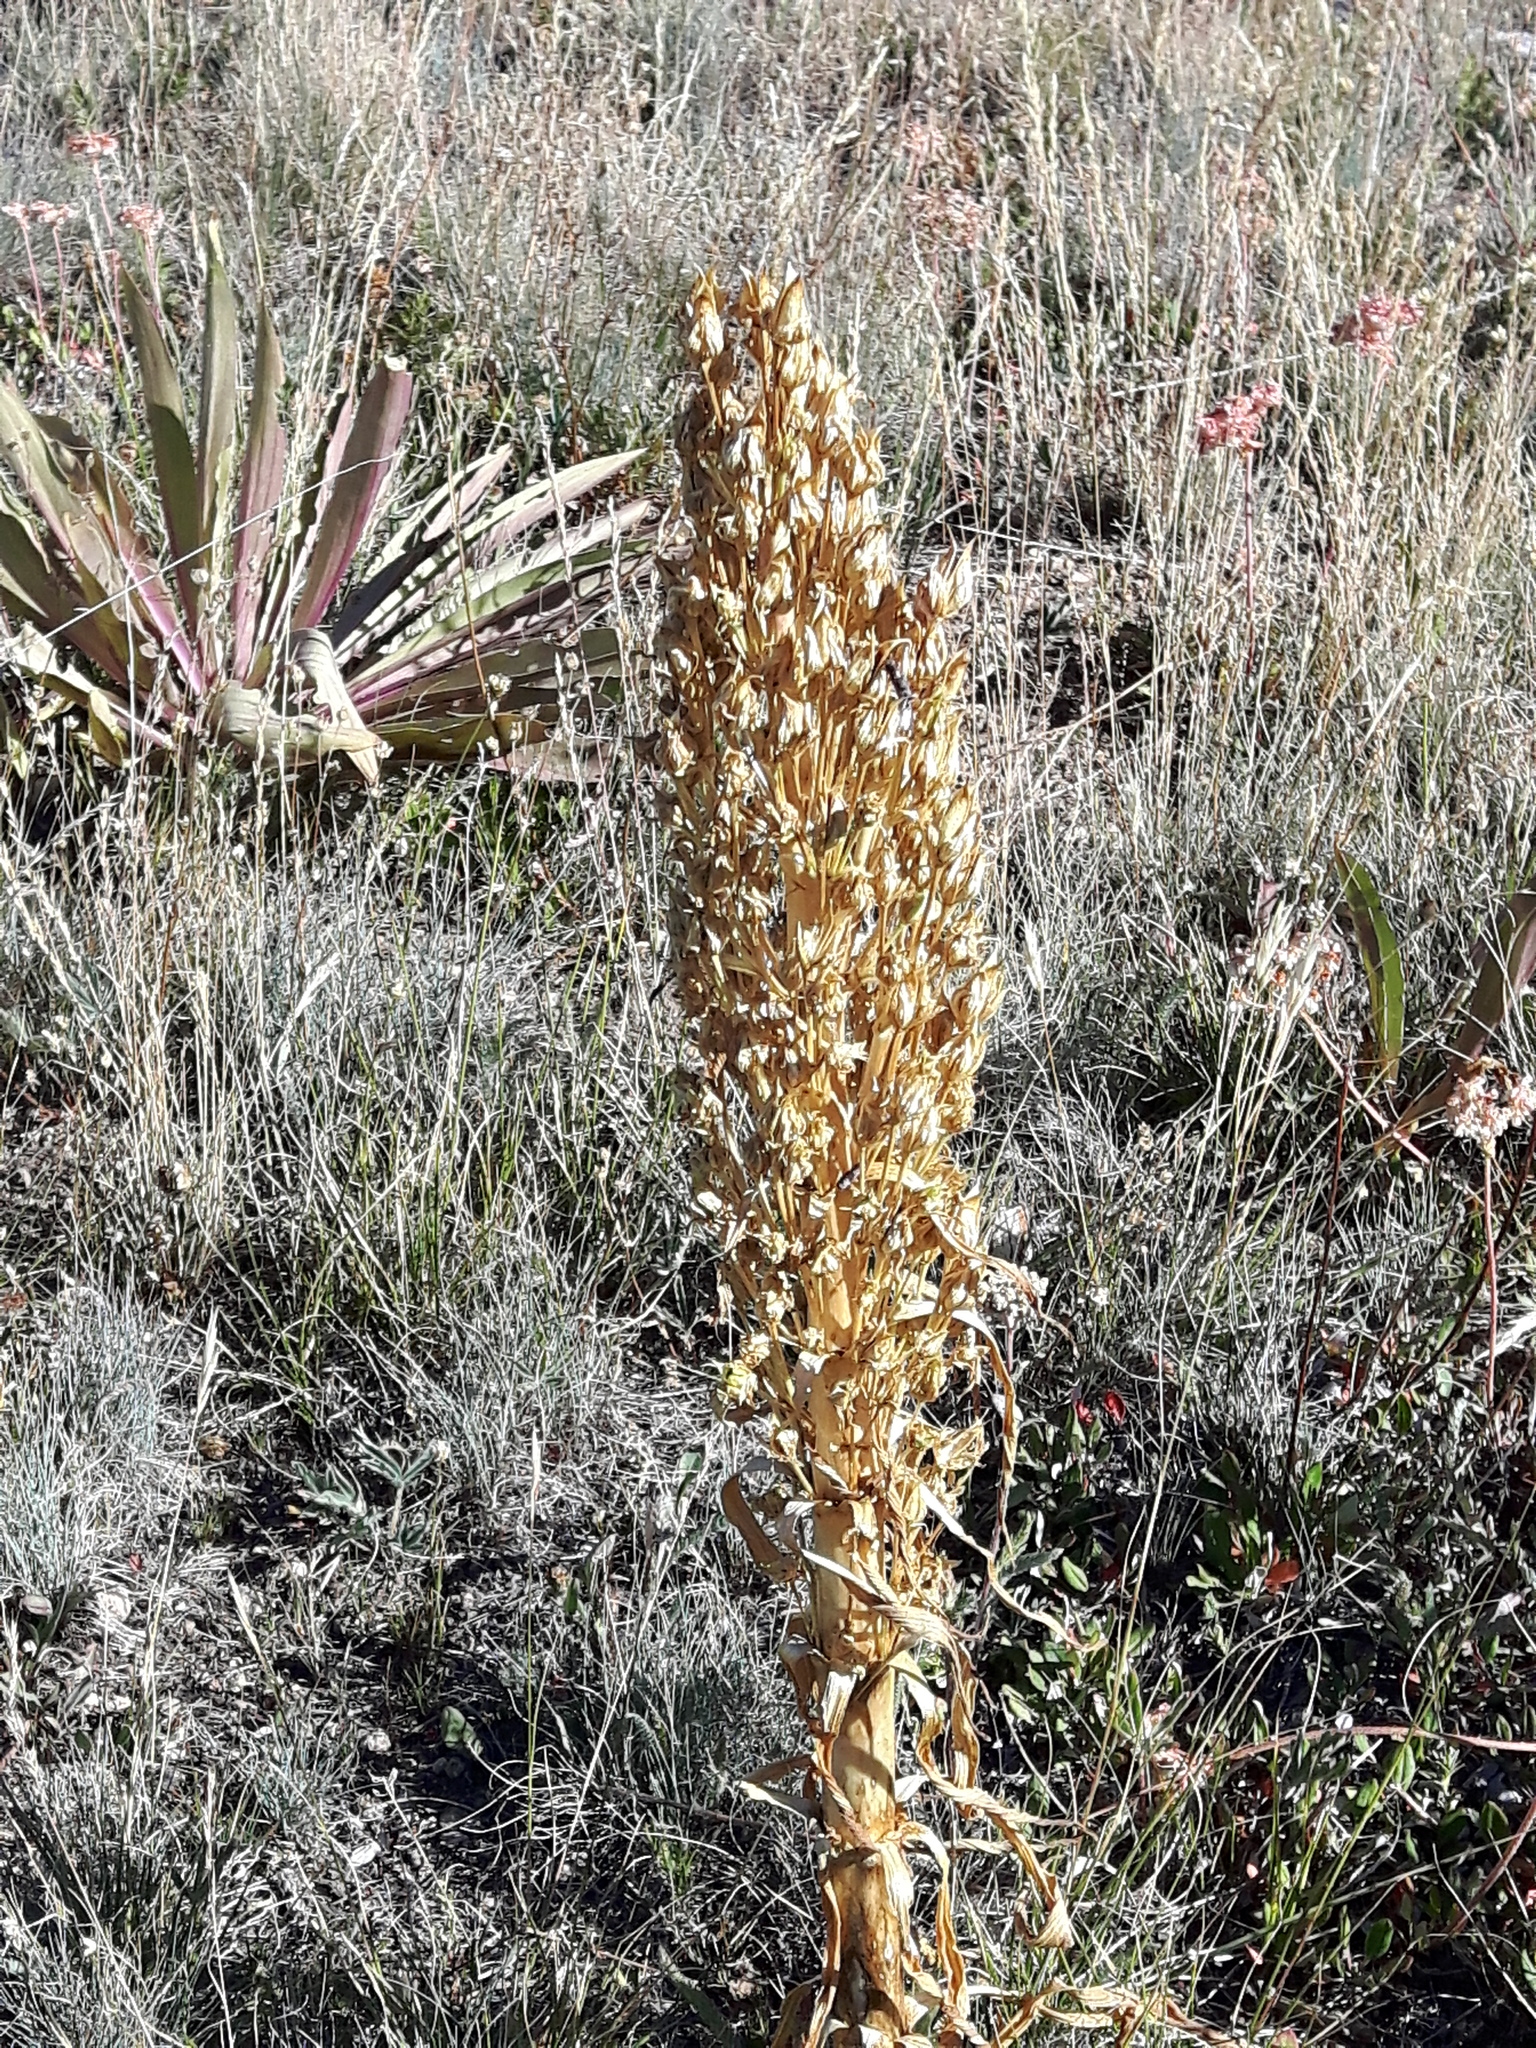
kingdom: Plantae
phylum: Tracheophyta
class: Magnoliopsida
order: Gentianales
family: Gentianaceae
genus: Frasera
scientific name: Frasera speciosa
